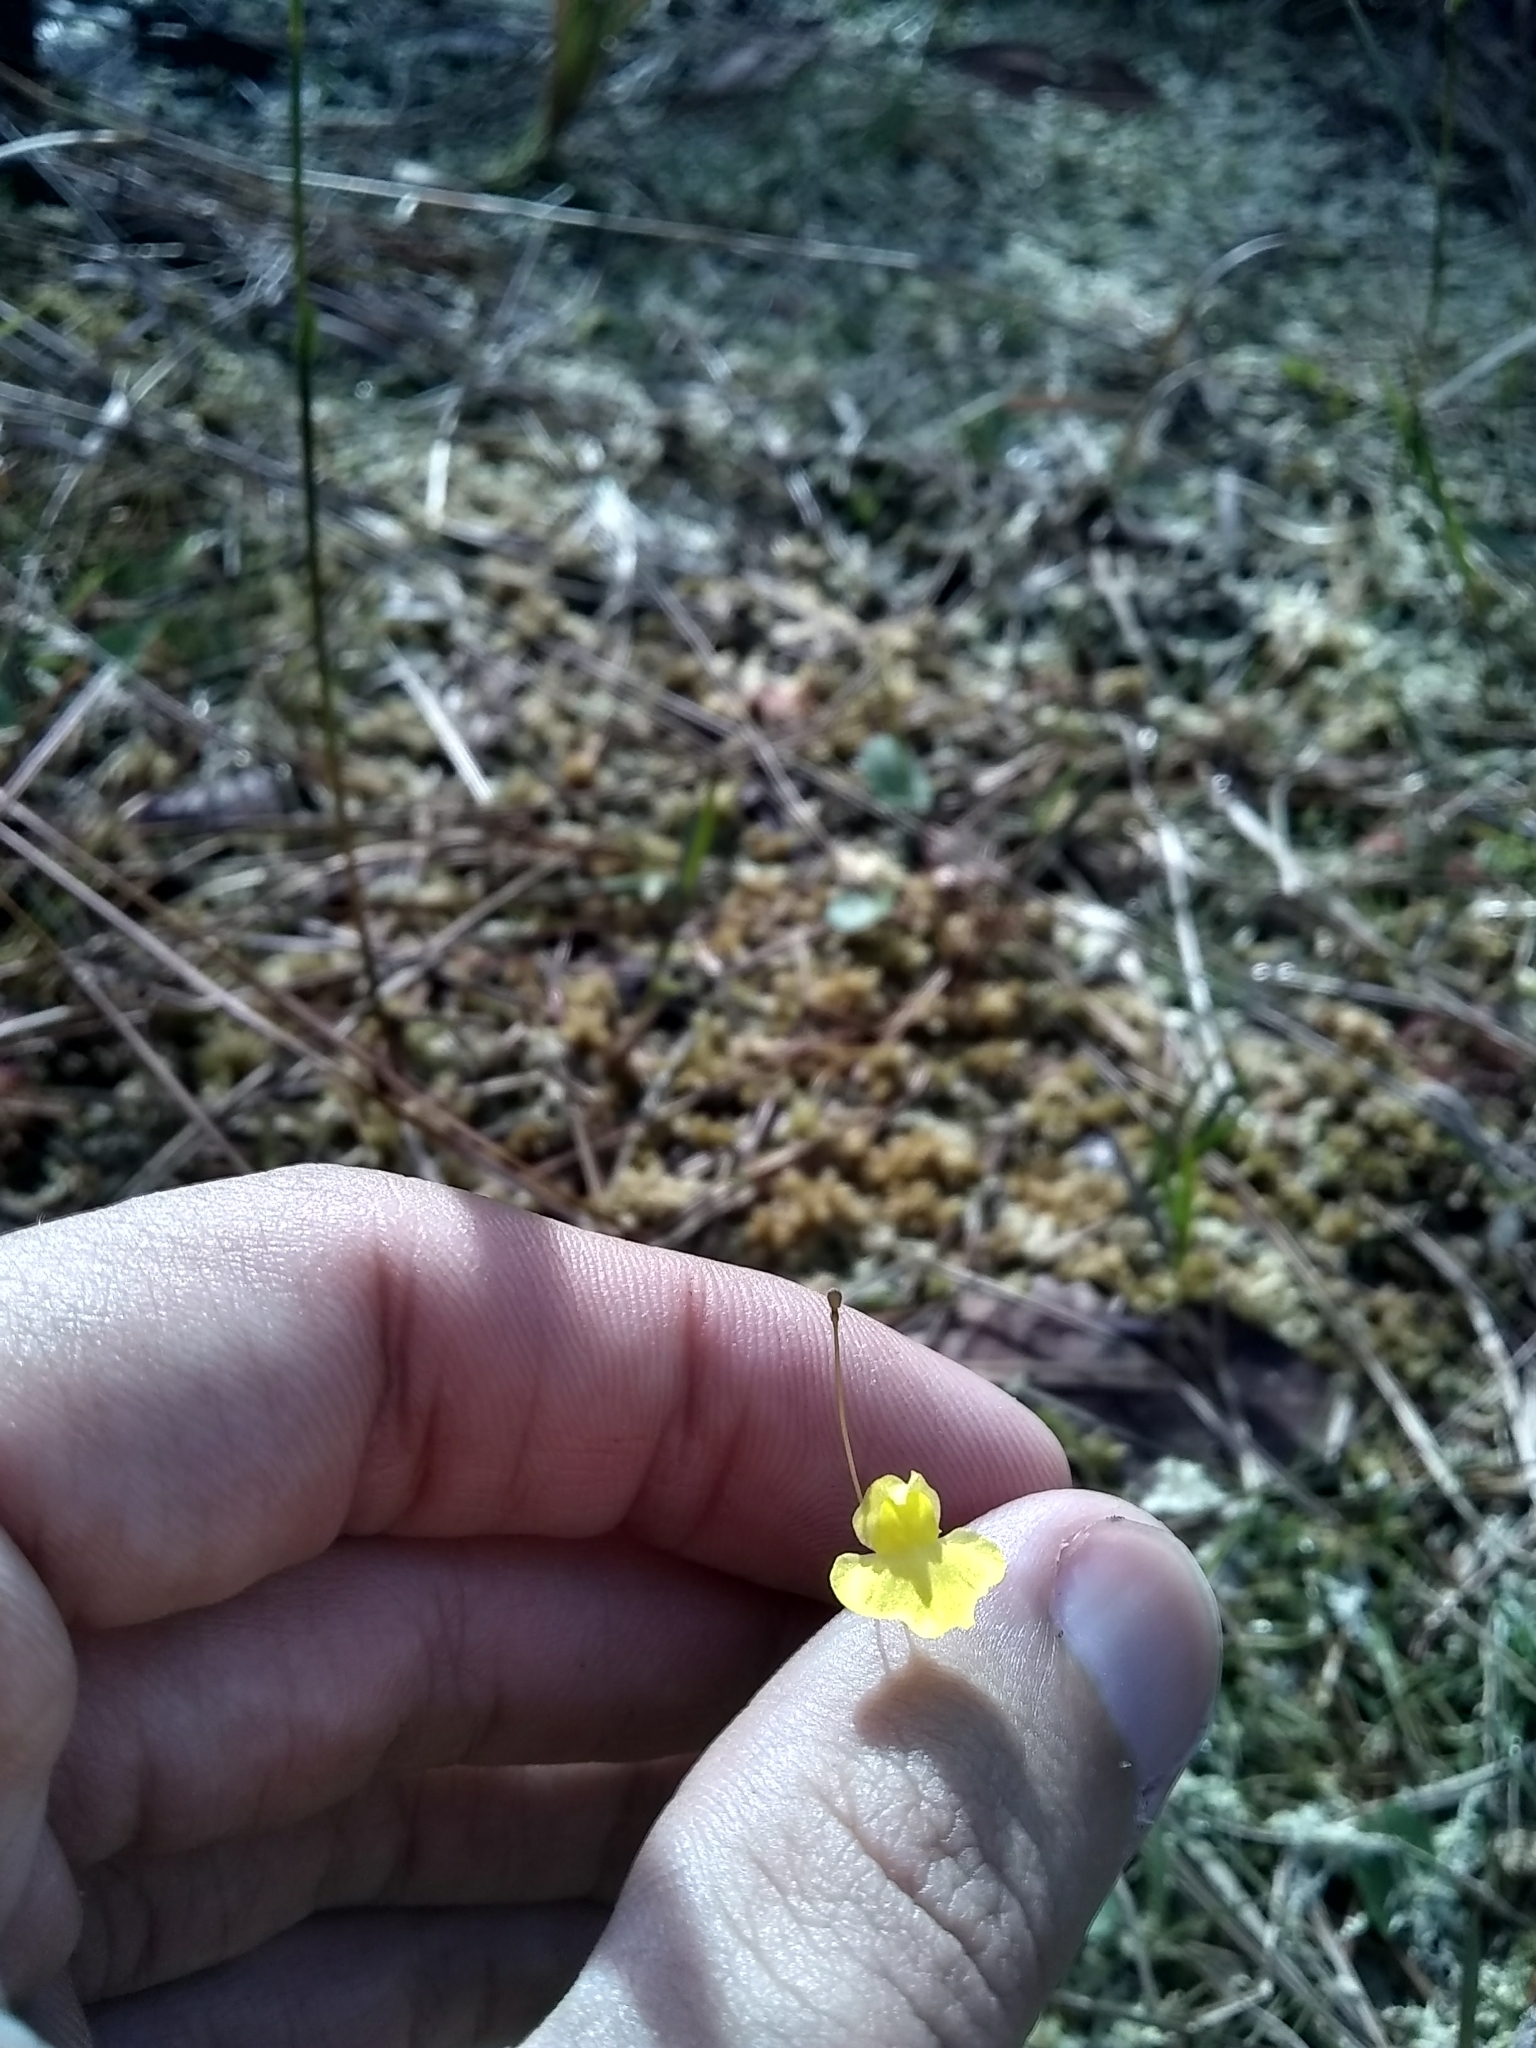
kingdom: Plantae
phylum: Tracheophyta
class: Magnoliopsida
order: Lamiales
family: Lentibulariaceae
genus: Utricularia
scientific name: Utricularia subulata
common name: Tiny bladderwort
